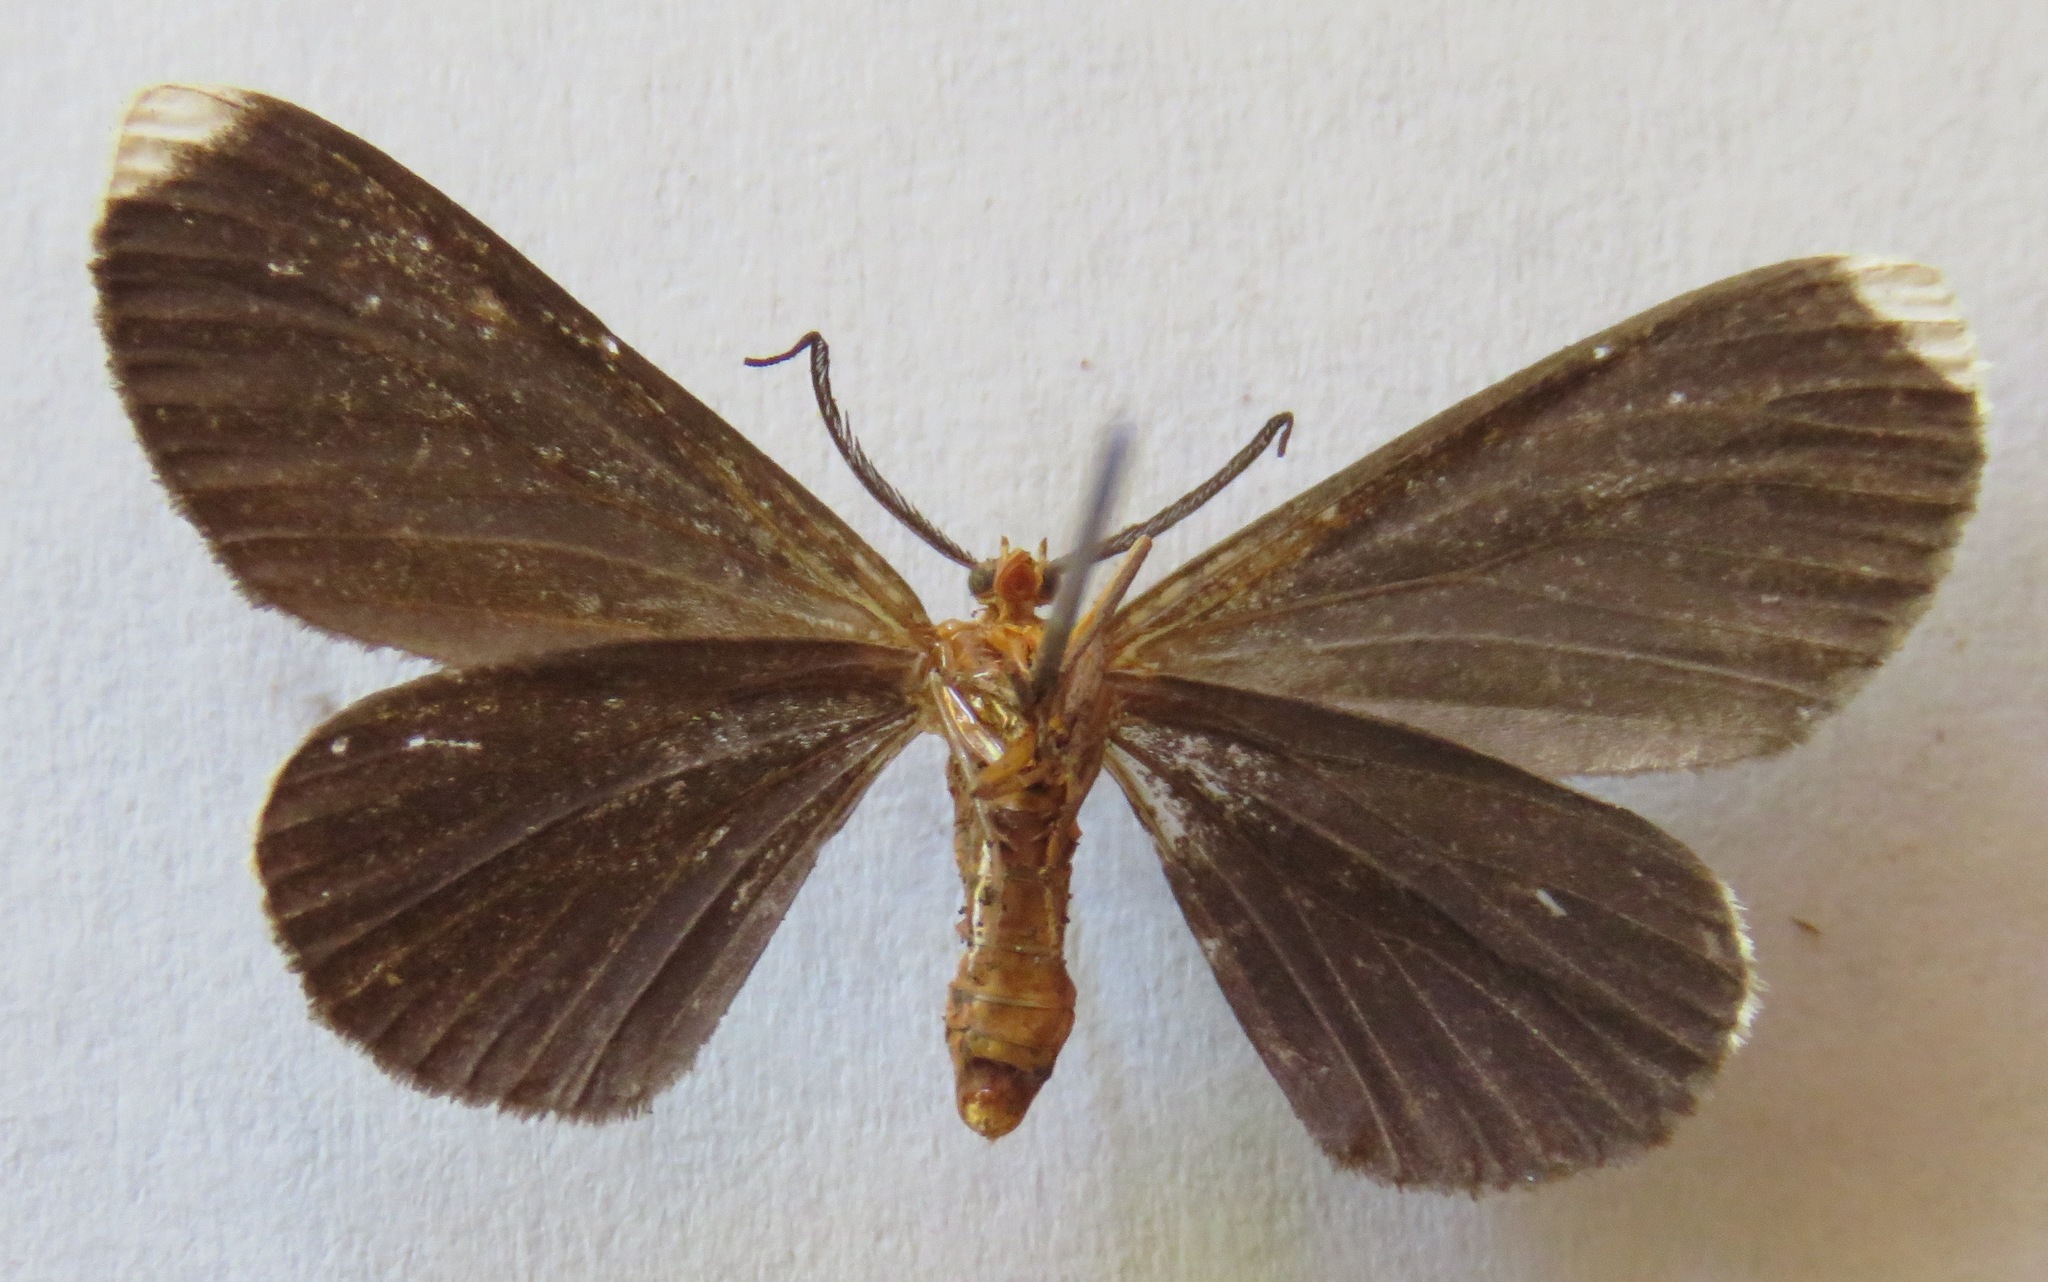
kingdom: Animalia
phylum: Arthropoda
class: Insecta
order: Lepidoptera
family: Geometridae
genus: Melanchroia
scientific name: Melanchroia chephise
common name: White-tipped black
